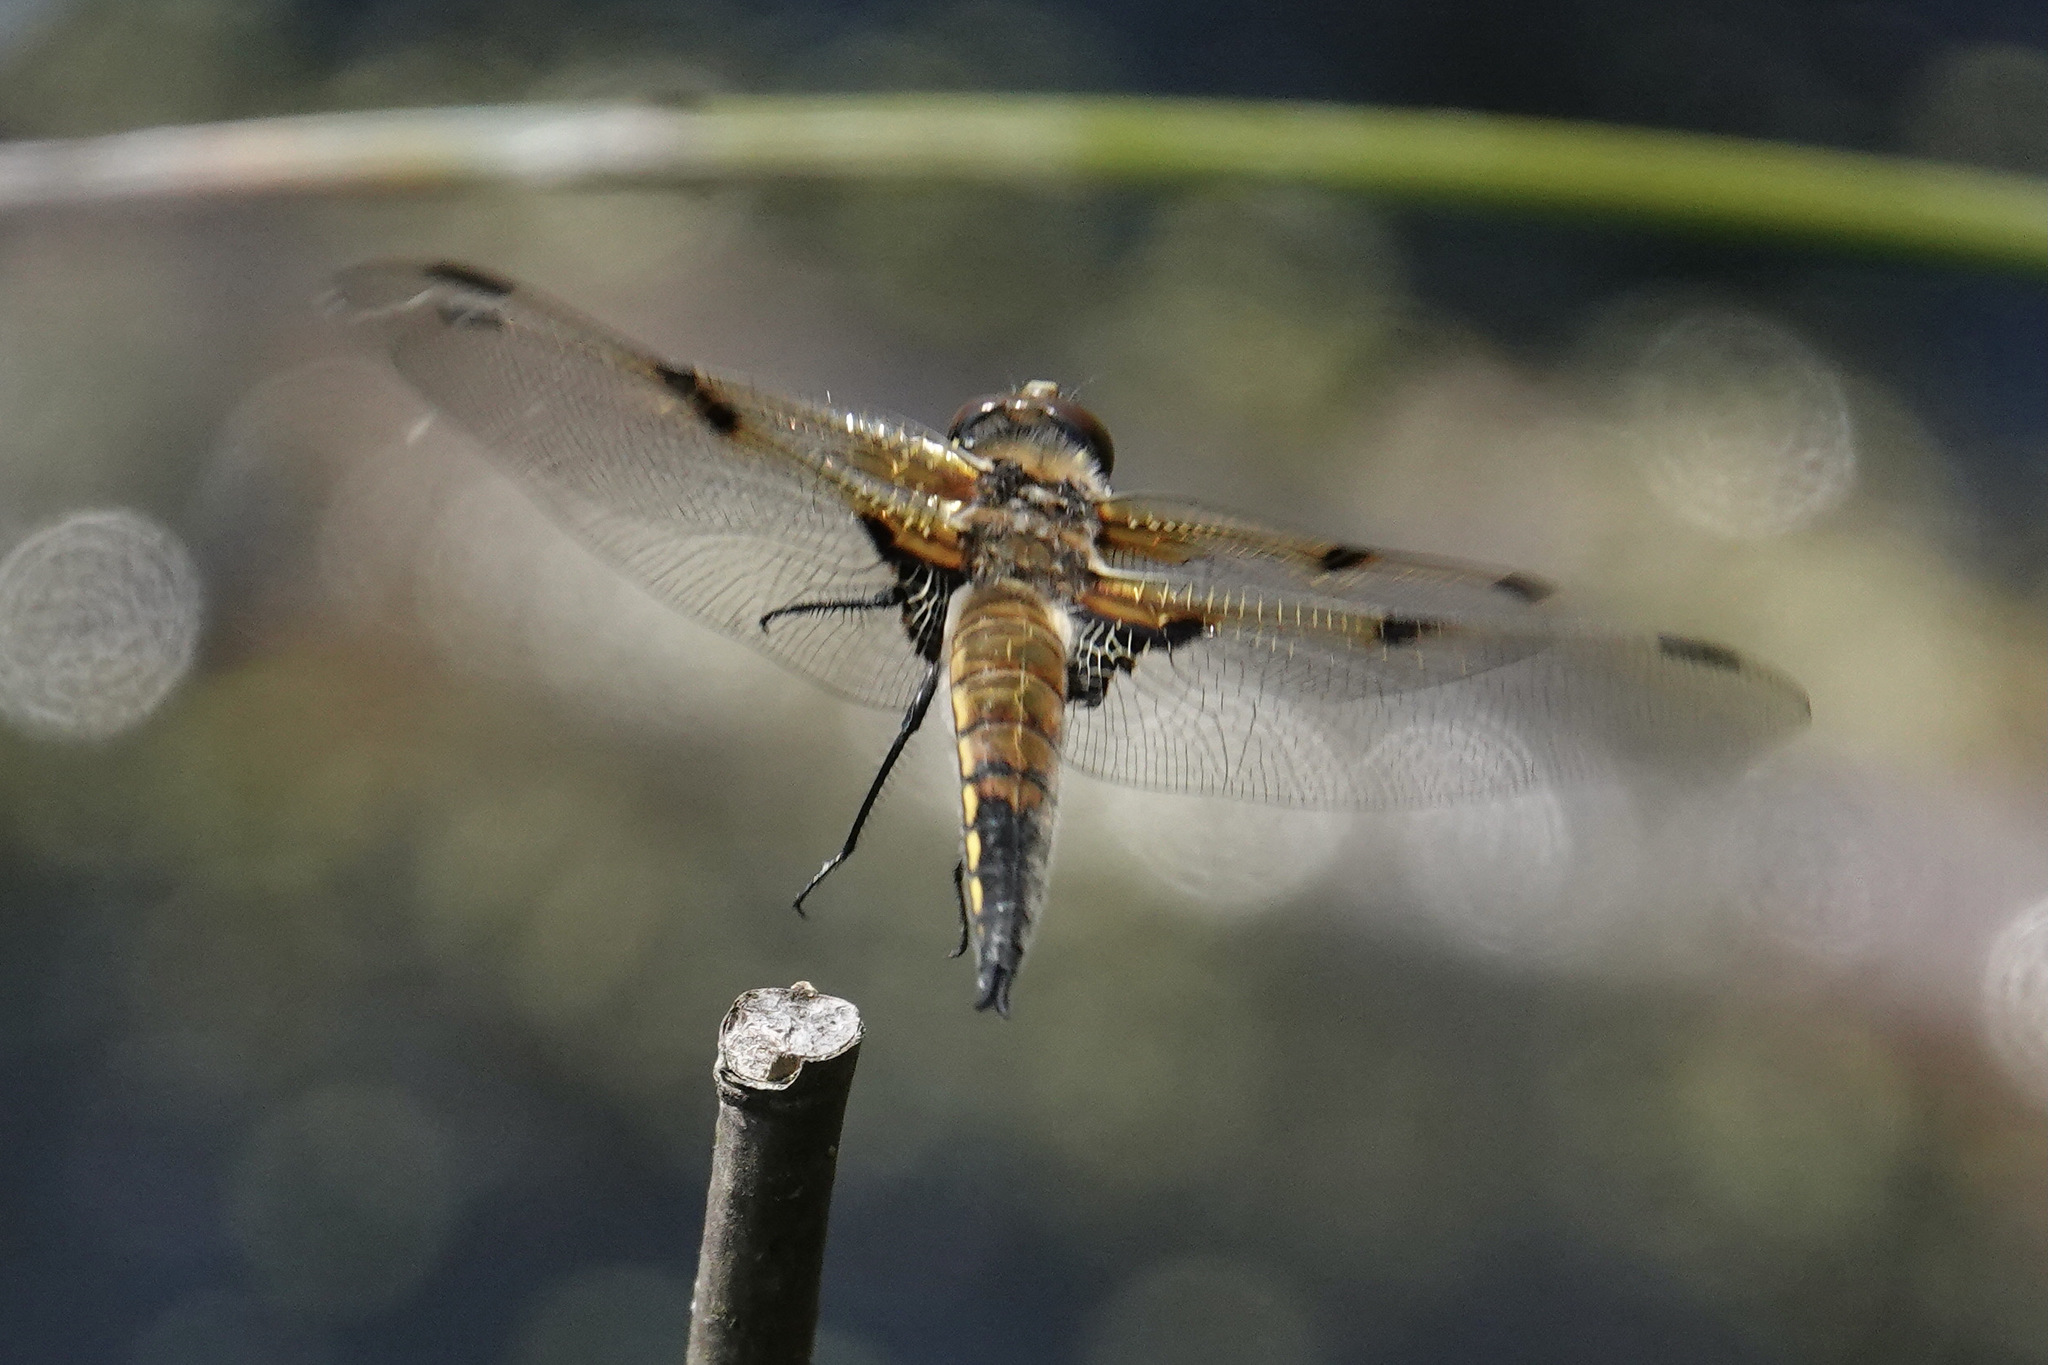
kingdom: Animalia
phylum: Arthropoda
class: Insecta
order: Odonata
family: Libellulidae
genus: Libellula
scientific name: Libellula quadrimaculata
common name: Four-spotted chaser
